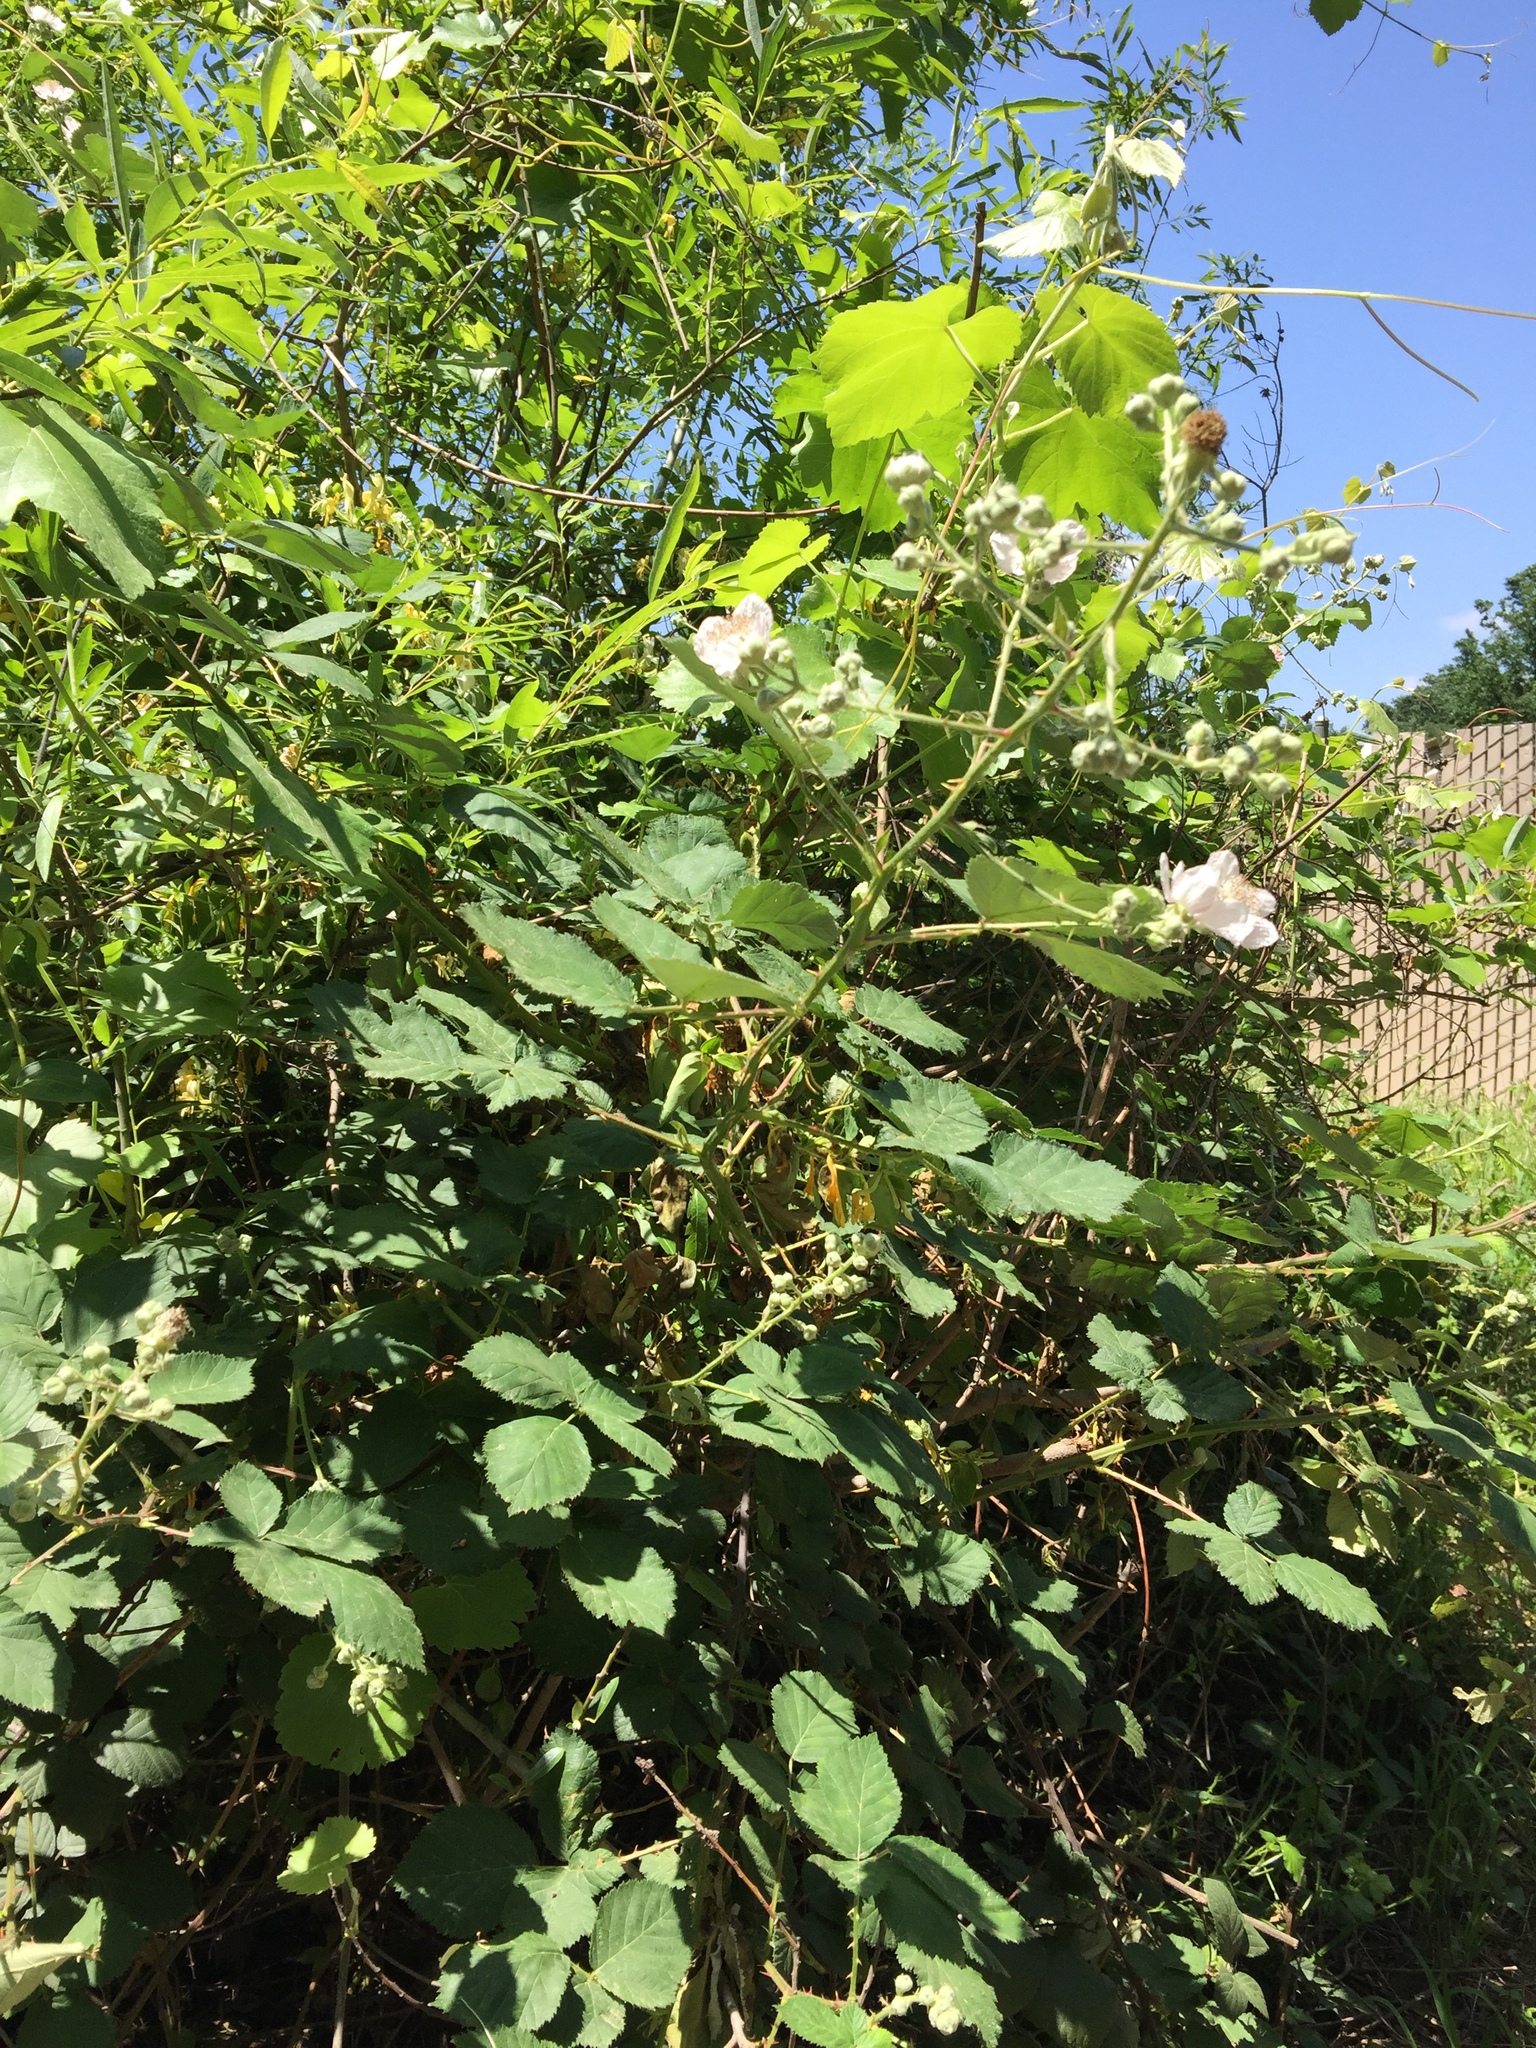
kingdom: Plantae
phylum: Tracheophyta
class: Magnoliopsida
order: Rosales
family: Rosaceae
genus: Rubus
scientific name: Rubus armeniacus
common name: Himalayan blackberry
